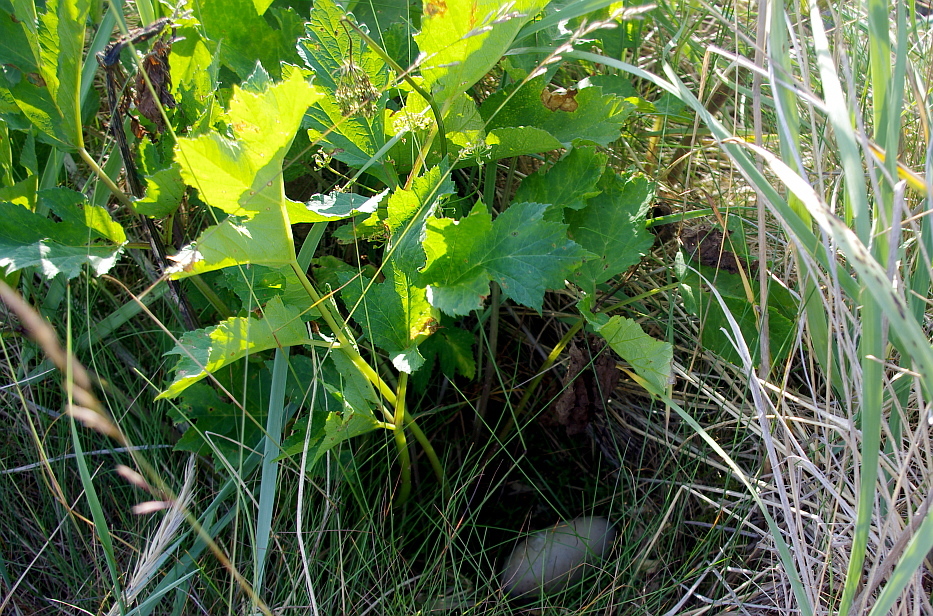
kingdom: Plantae
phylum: Tracheophyta
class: Magnoliopsida
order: Apiales
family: Apiaceae
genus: Heracleum
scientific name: Heracleum sphondylium
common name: Hogweed
